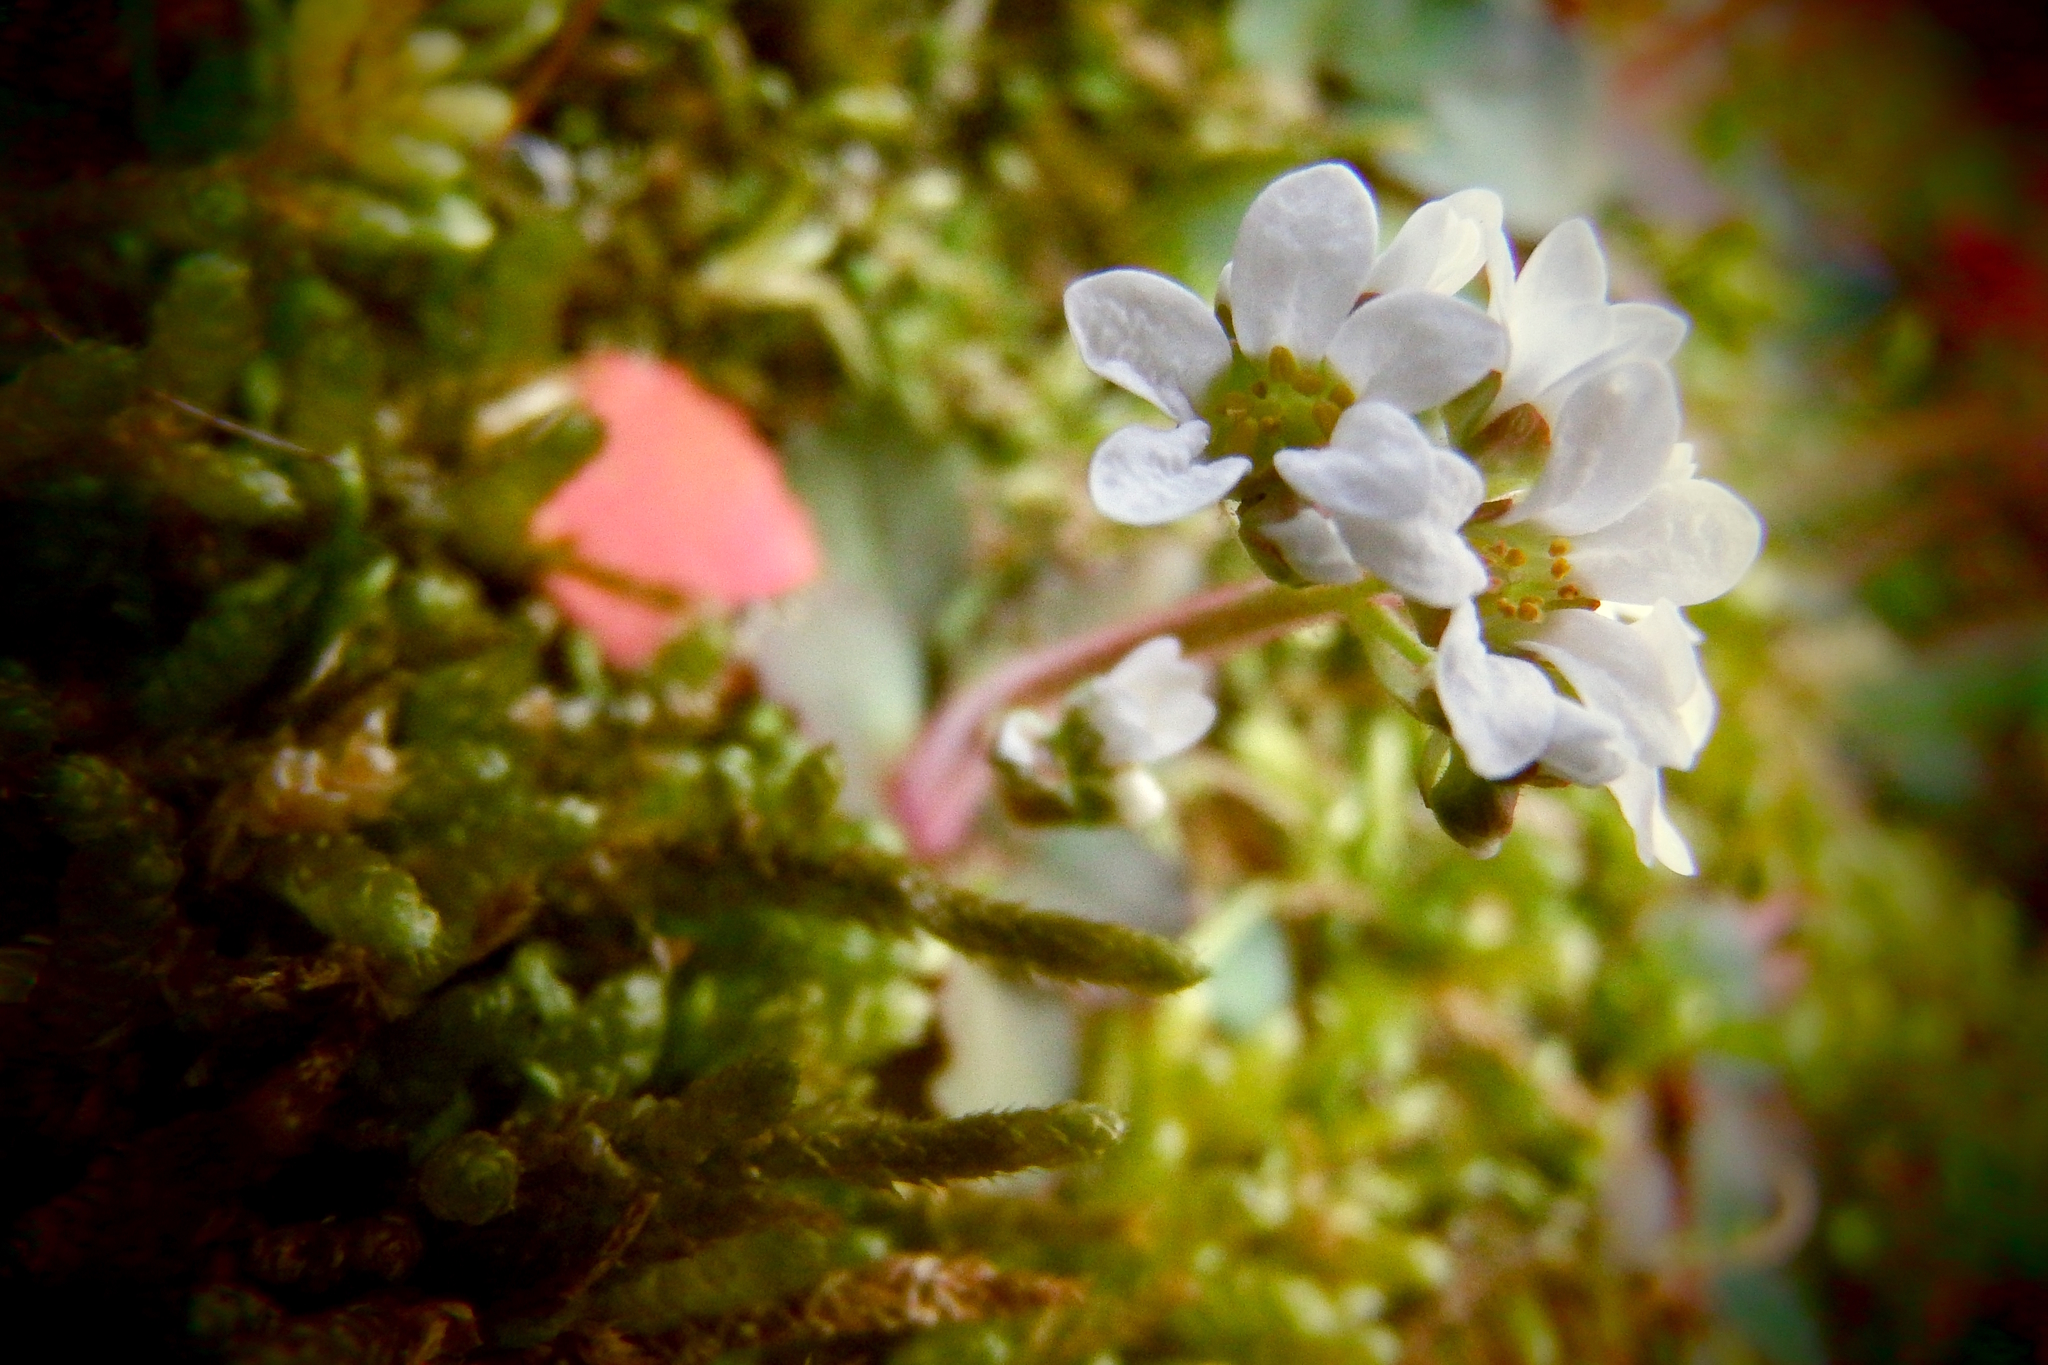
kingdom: Plantae
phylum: Tracheophyta
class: Magnoliopsida
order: Saxifragales
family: Saxifragaceae
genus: Micranthes
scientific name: Micranthes virginiensis
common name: Early saxifrage
